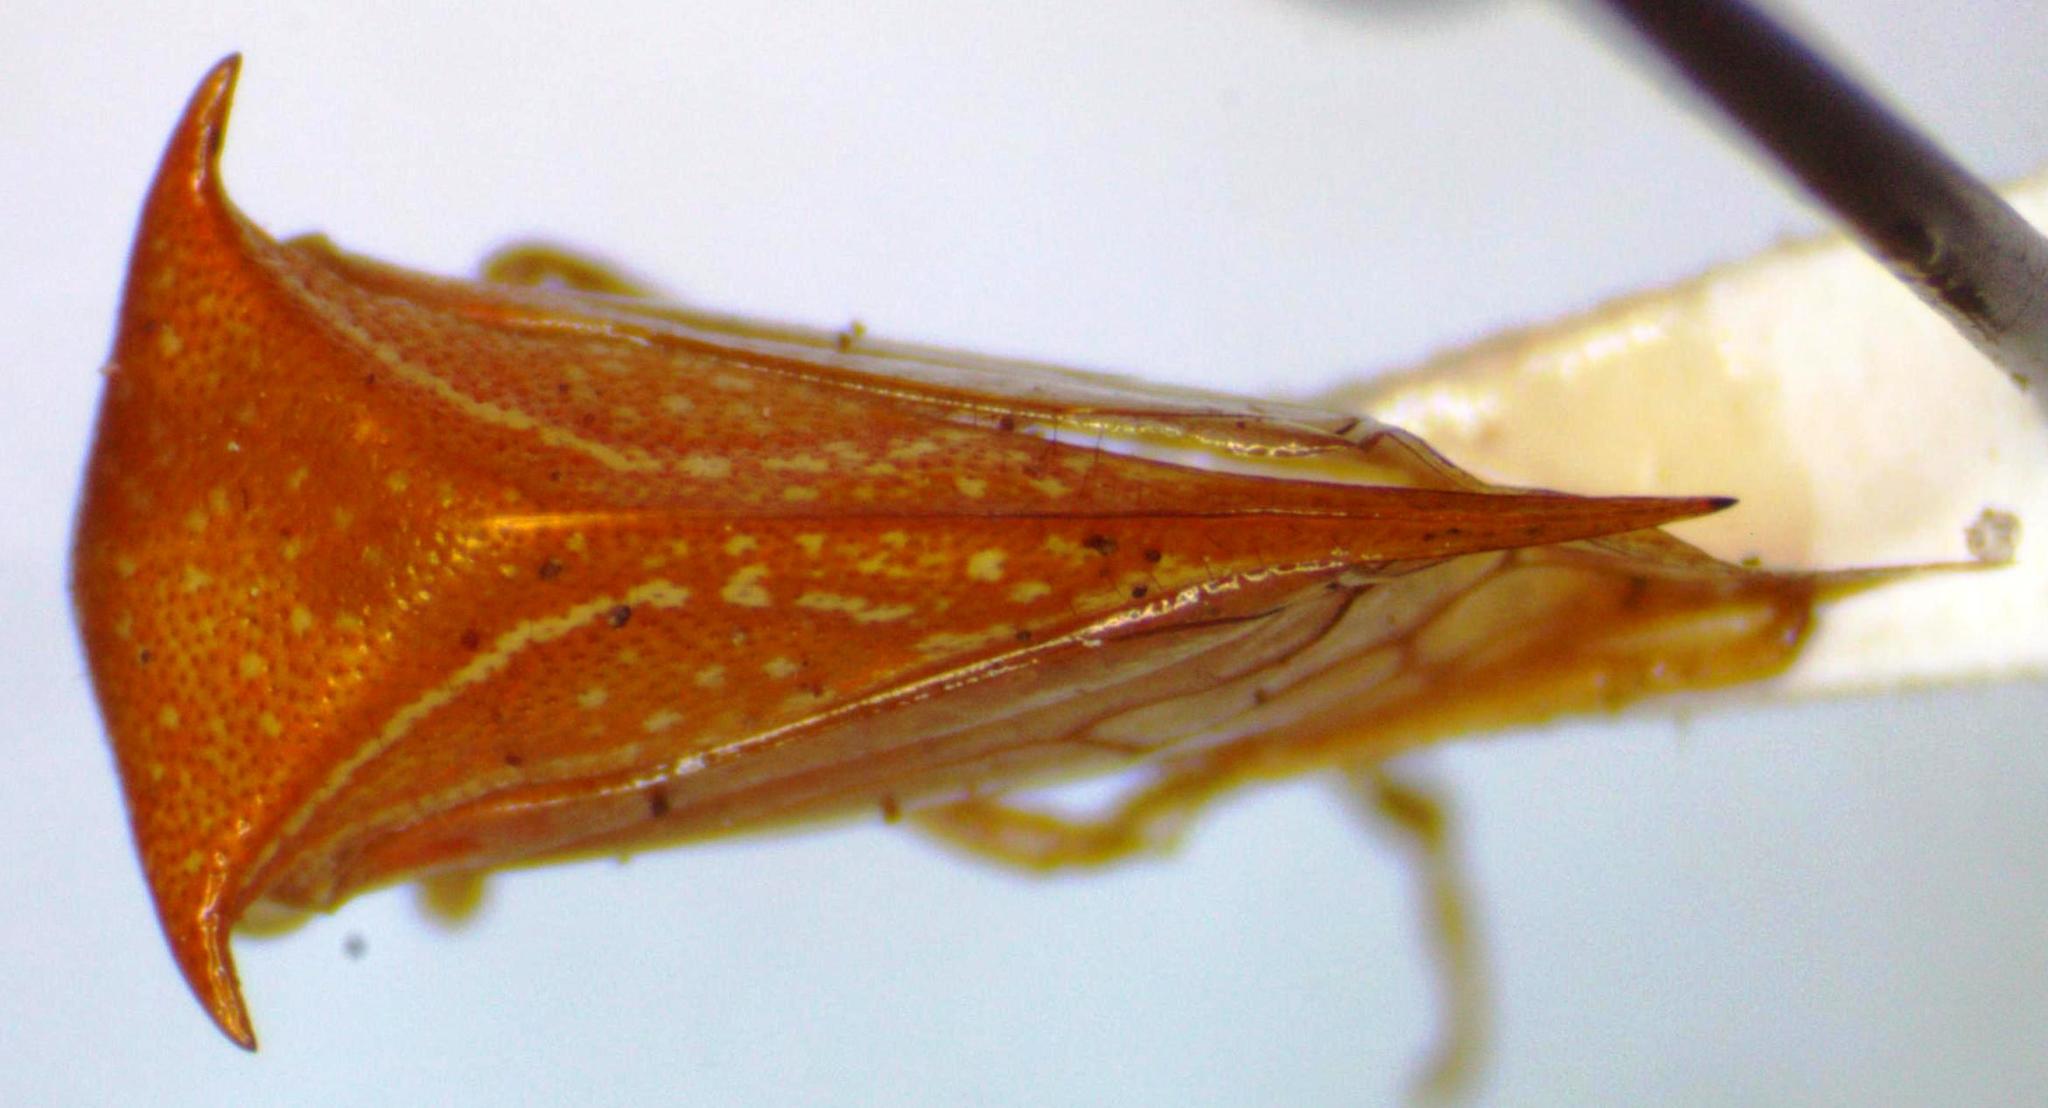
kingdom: Animalia
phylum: Arthropoda
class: Insecta
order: Hemiptera
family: Membracidae
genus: Stictolobus
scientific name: Stictolobus minor
